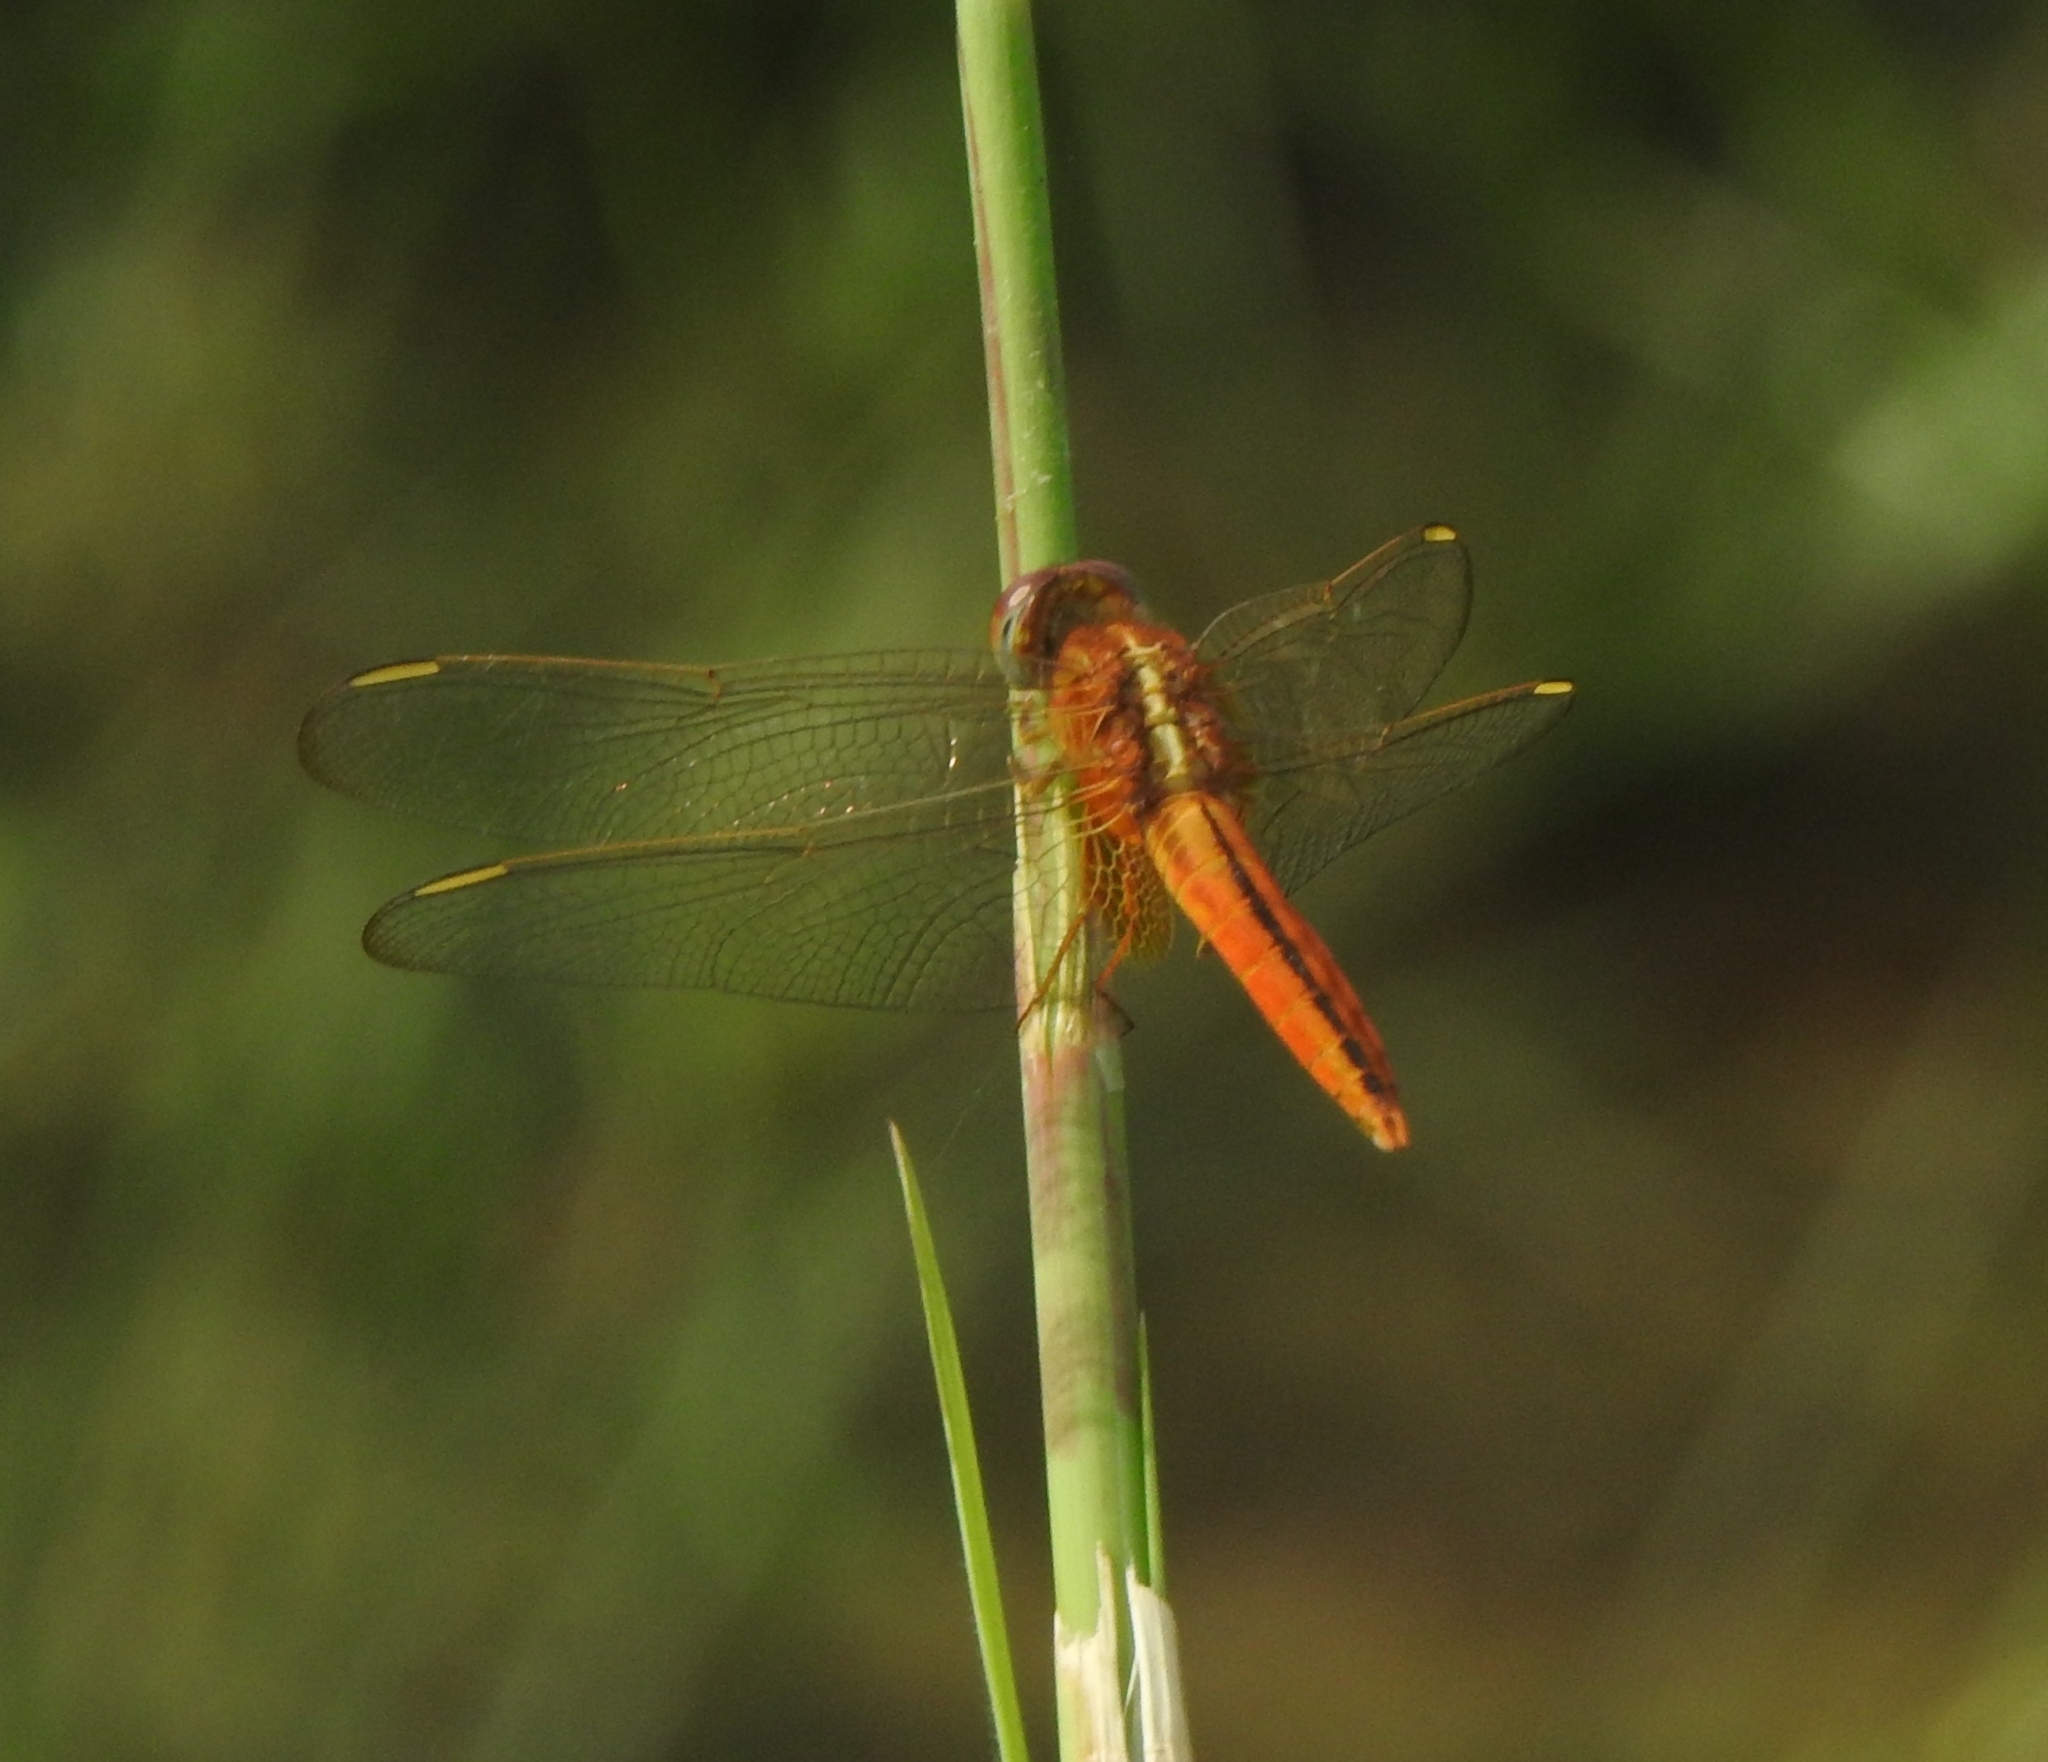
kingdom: Animalia
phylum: Arthropoda
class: Insecta
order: Odonata
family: Libellulidae
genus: Crocothemis
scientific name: Crocothemis servilia
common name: Scarlet skimmer
